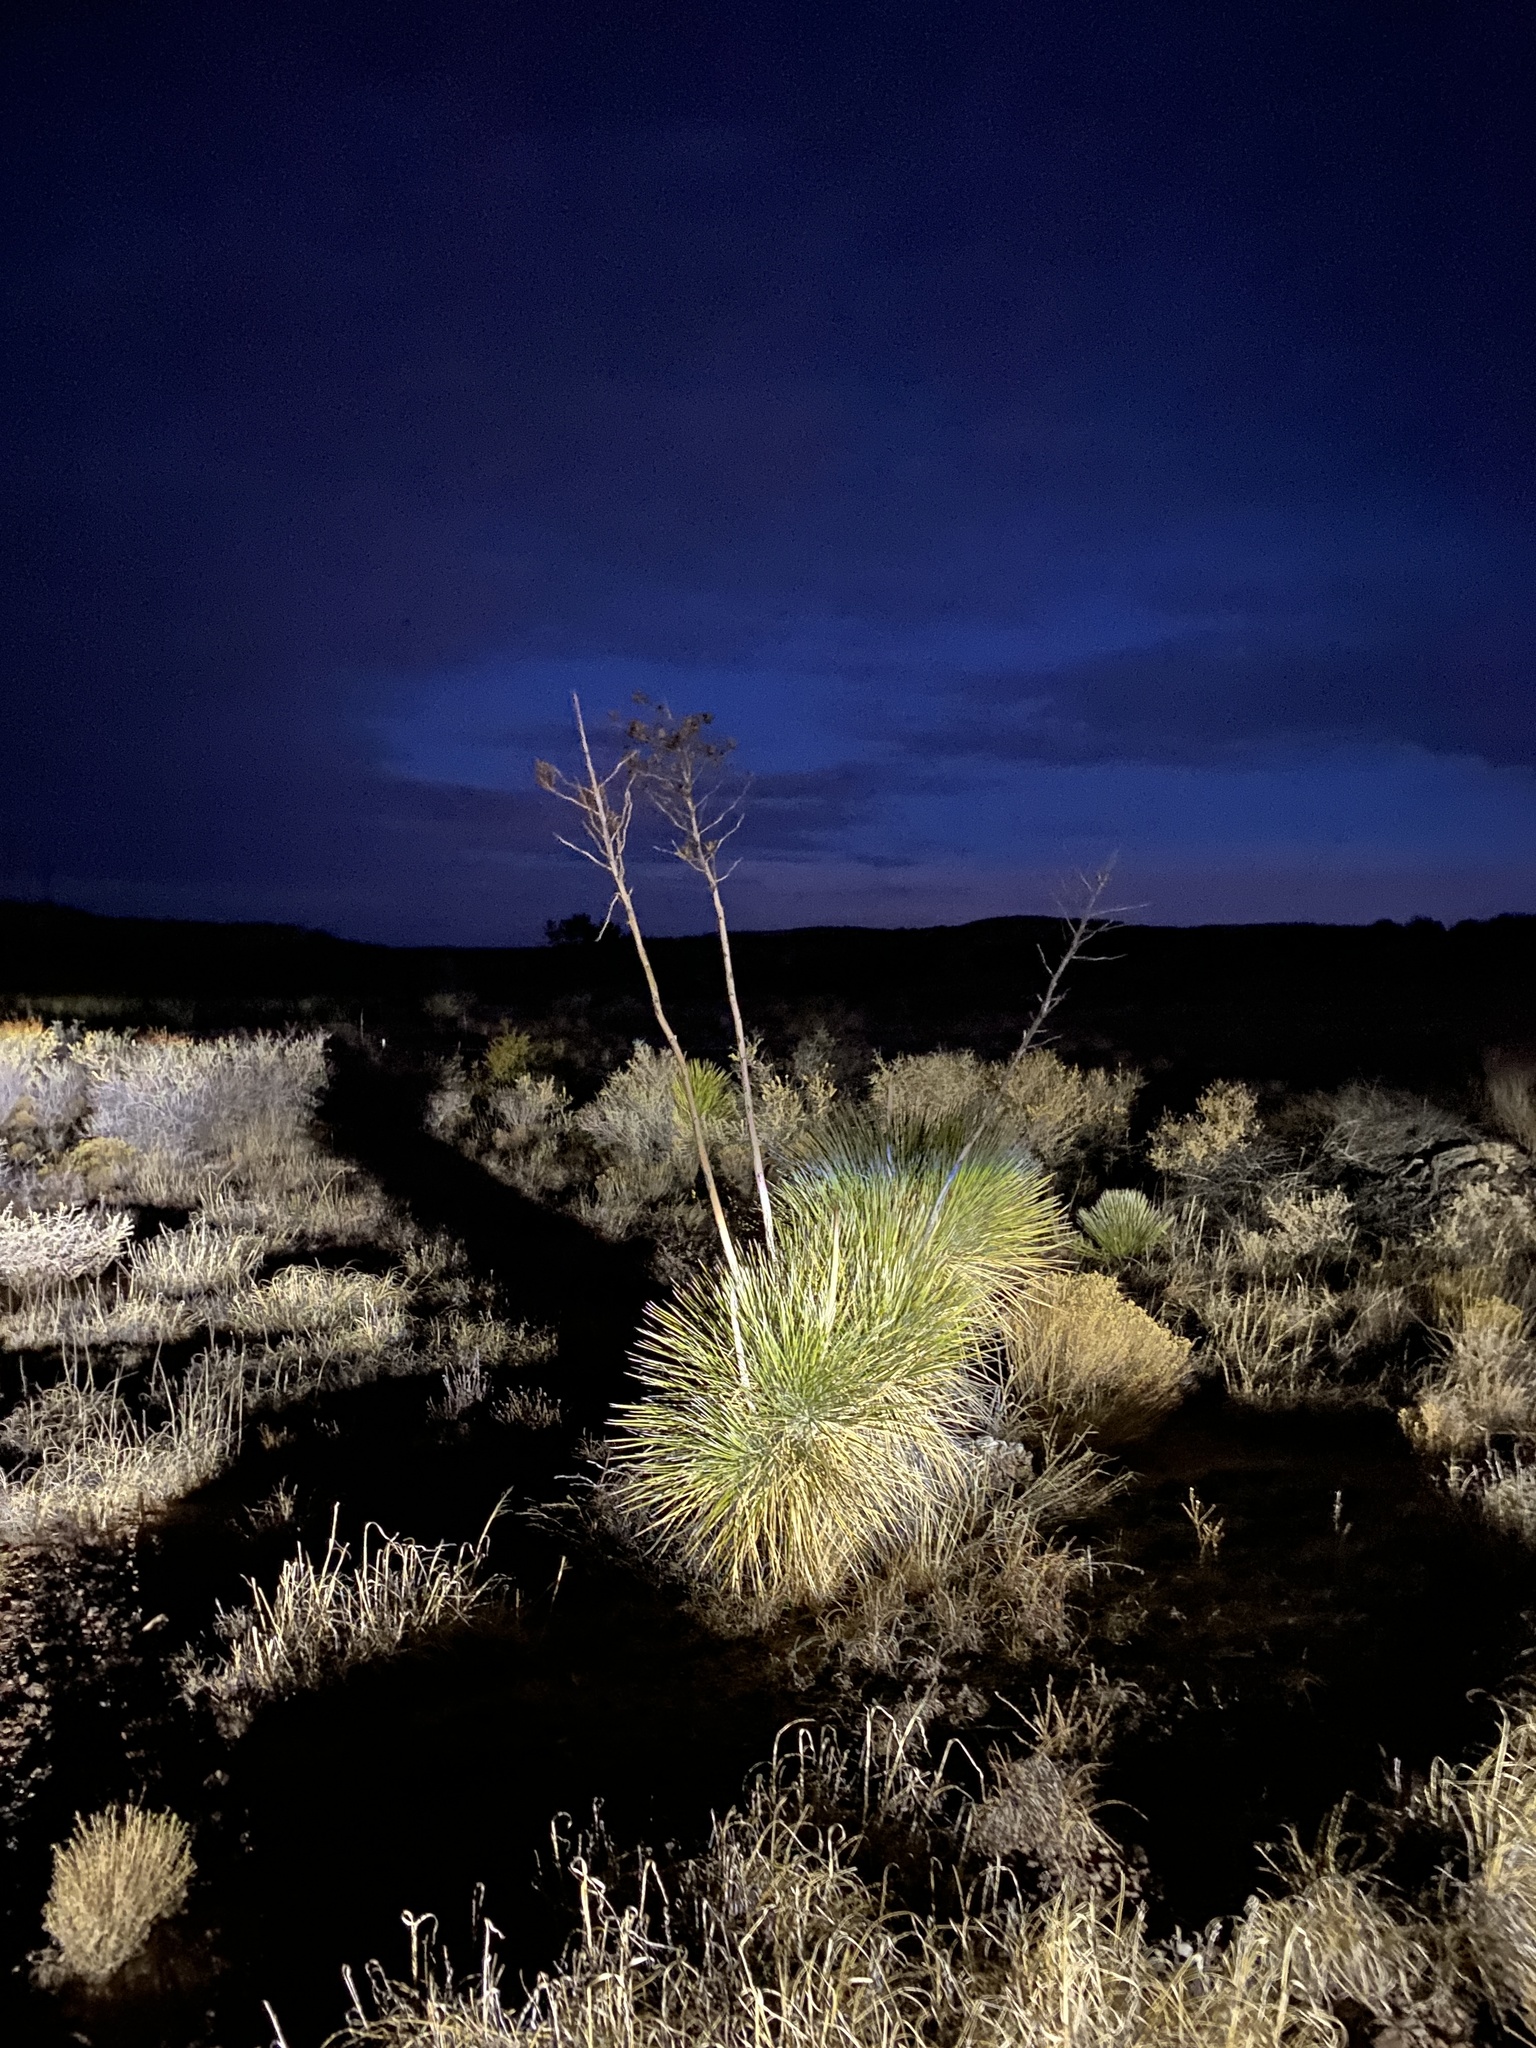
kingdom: Plantae
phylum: Tracheophyta
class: Liliopsida
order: Asparagales
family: Asparagaceae
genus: Yucca
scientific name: Yucca elata
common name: Palmella
